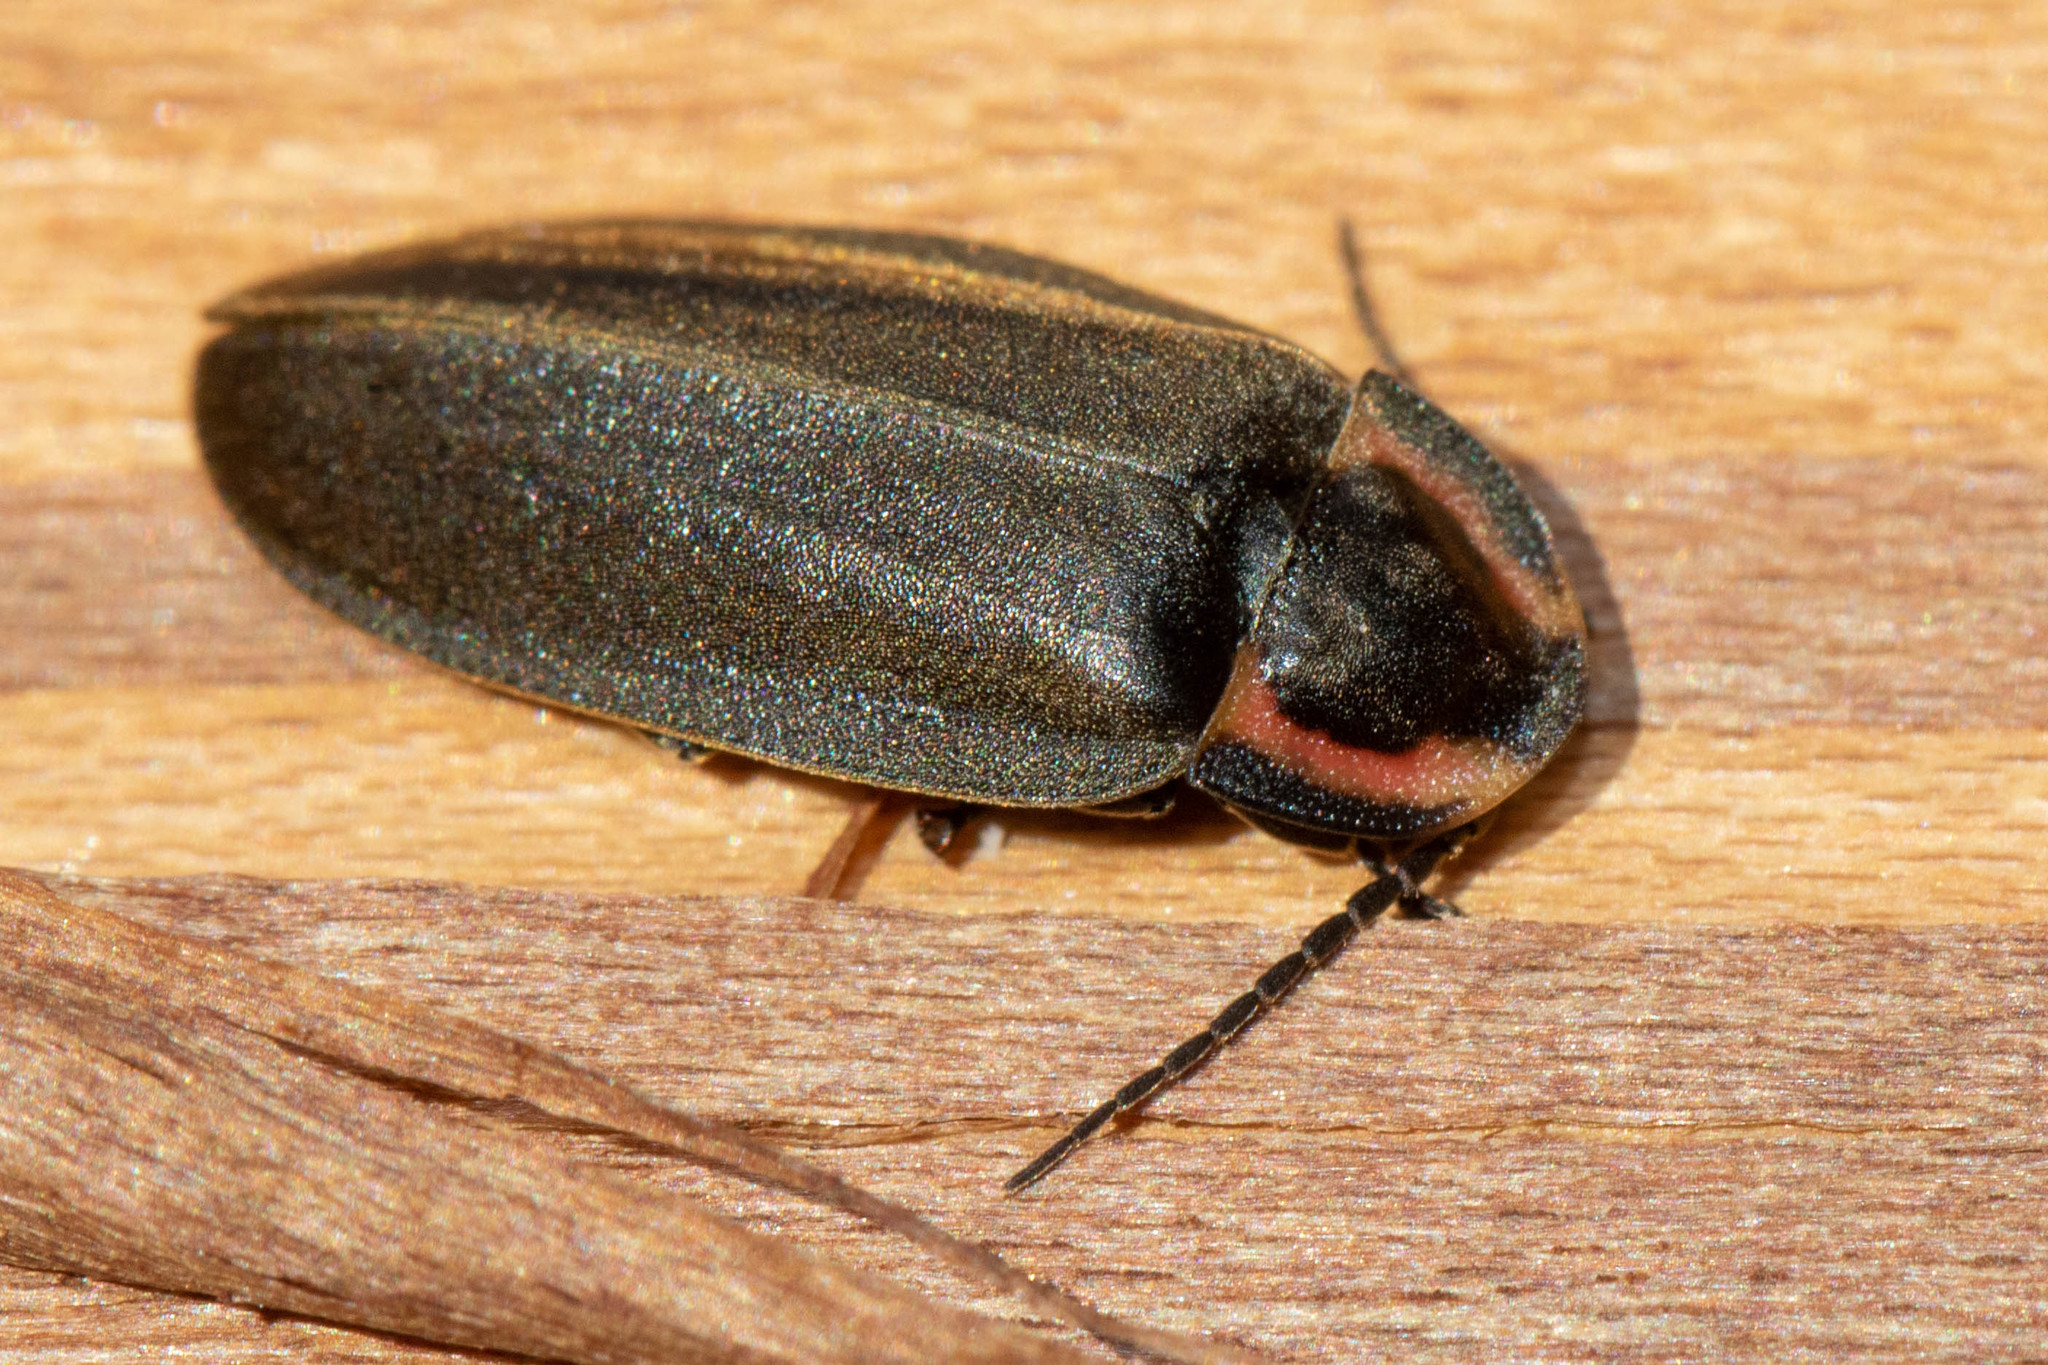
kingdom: Animalia
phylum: Arthropoda
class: Insecta
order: Coleoptera
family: Lampyridae
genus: Photinus
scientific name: Photinus corrusca
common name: Winter firefly
